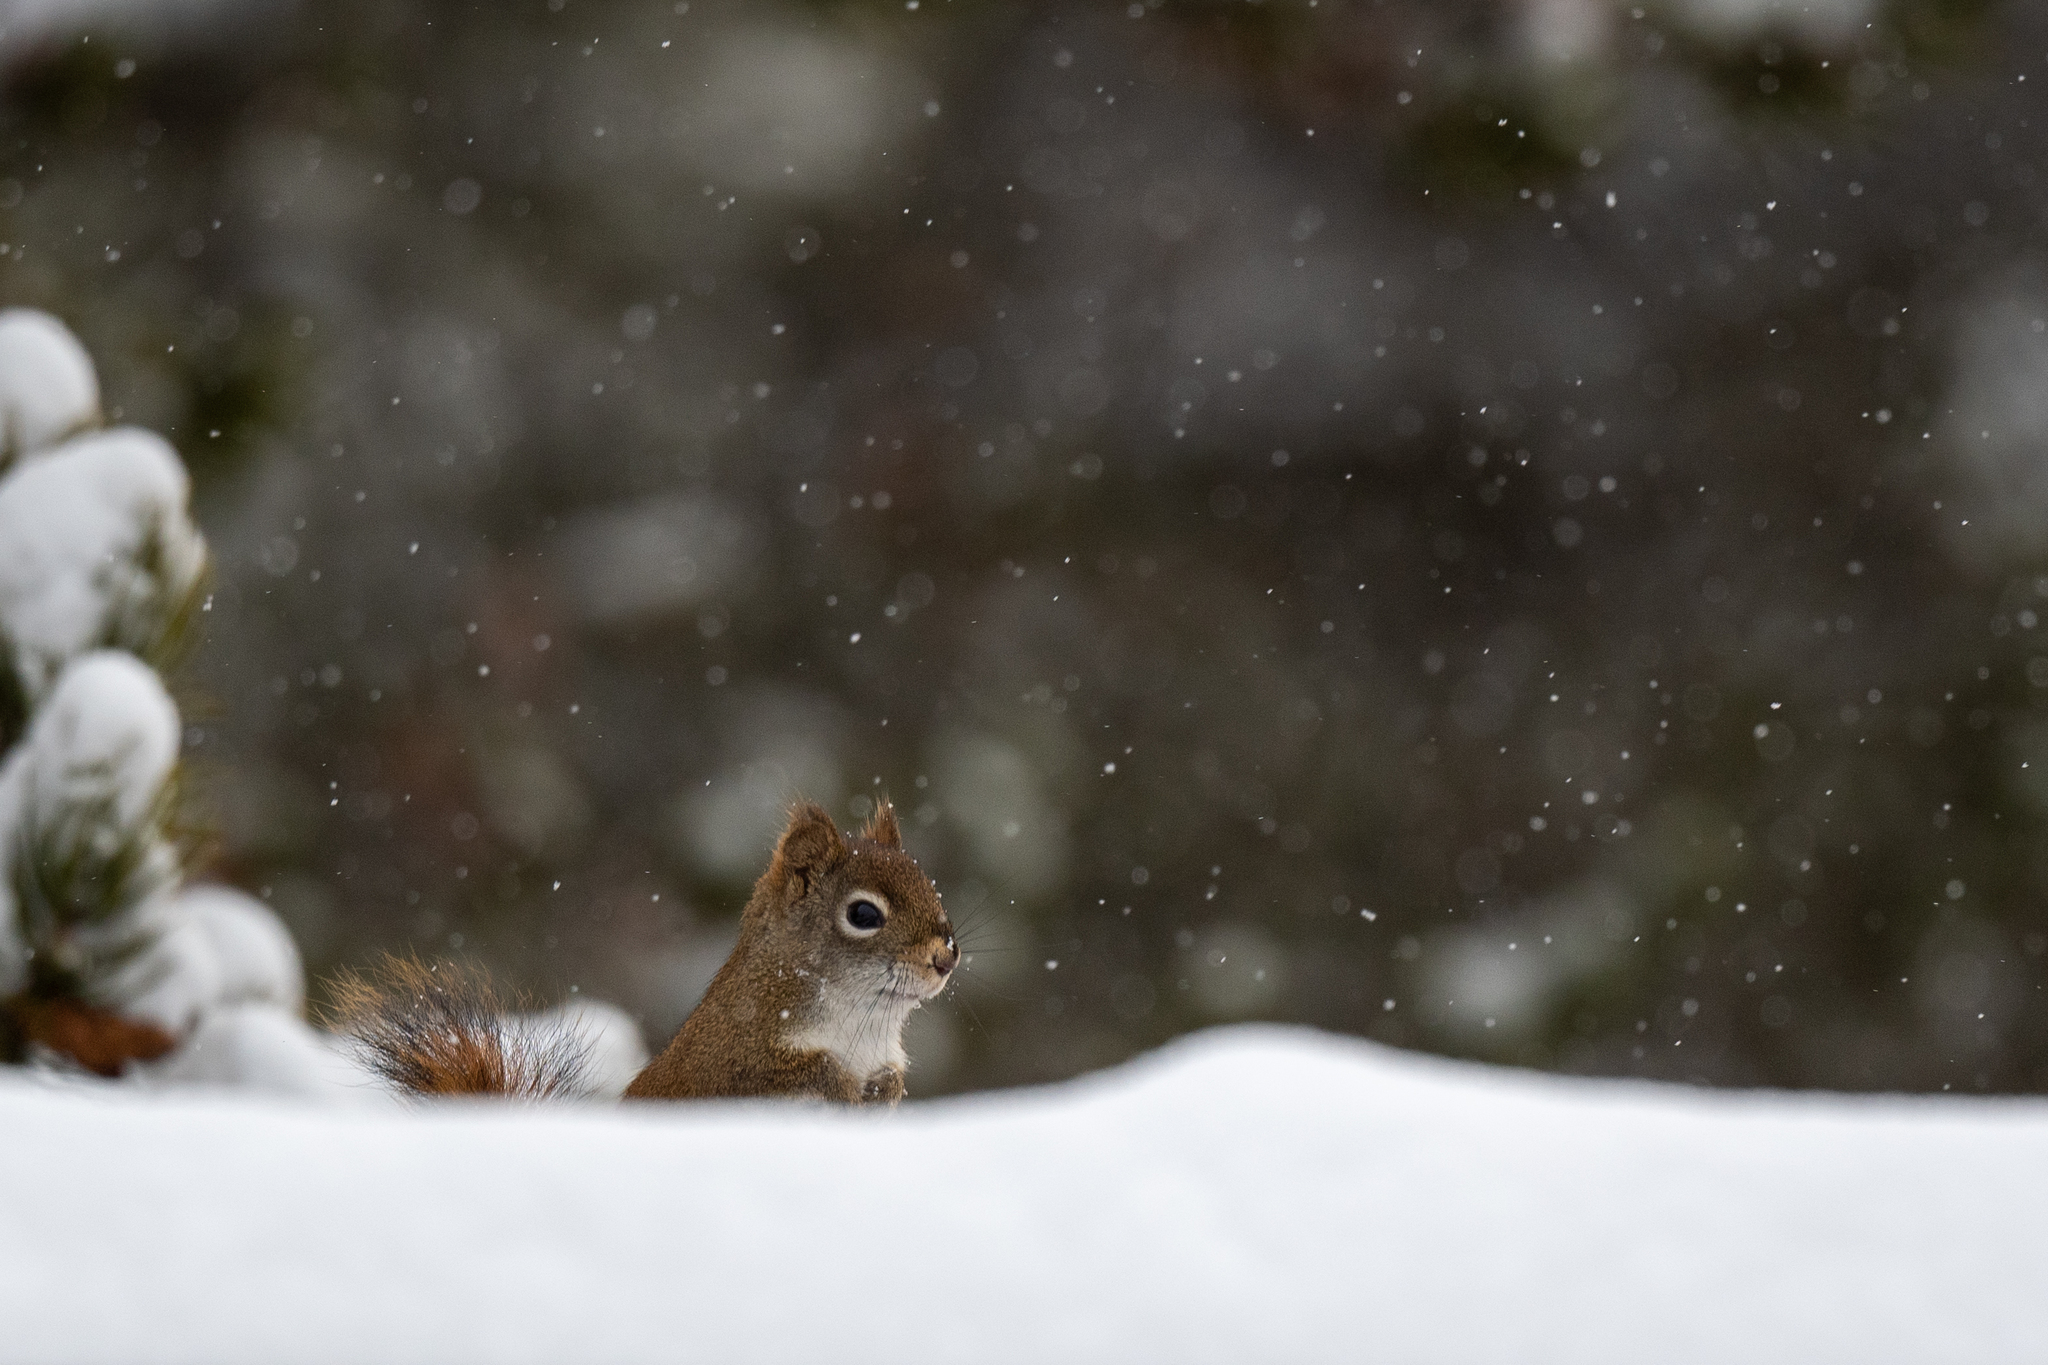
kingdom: Animalia
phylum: Chordata
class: Mammalia
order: Rodentia
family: Sciuridae
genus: Tamiasciurus
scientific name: Tamiasciurus hudsonicus
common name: Red squirrel
